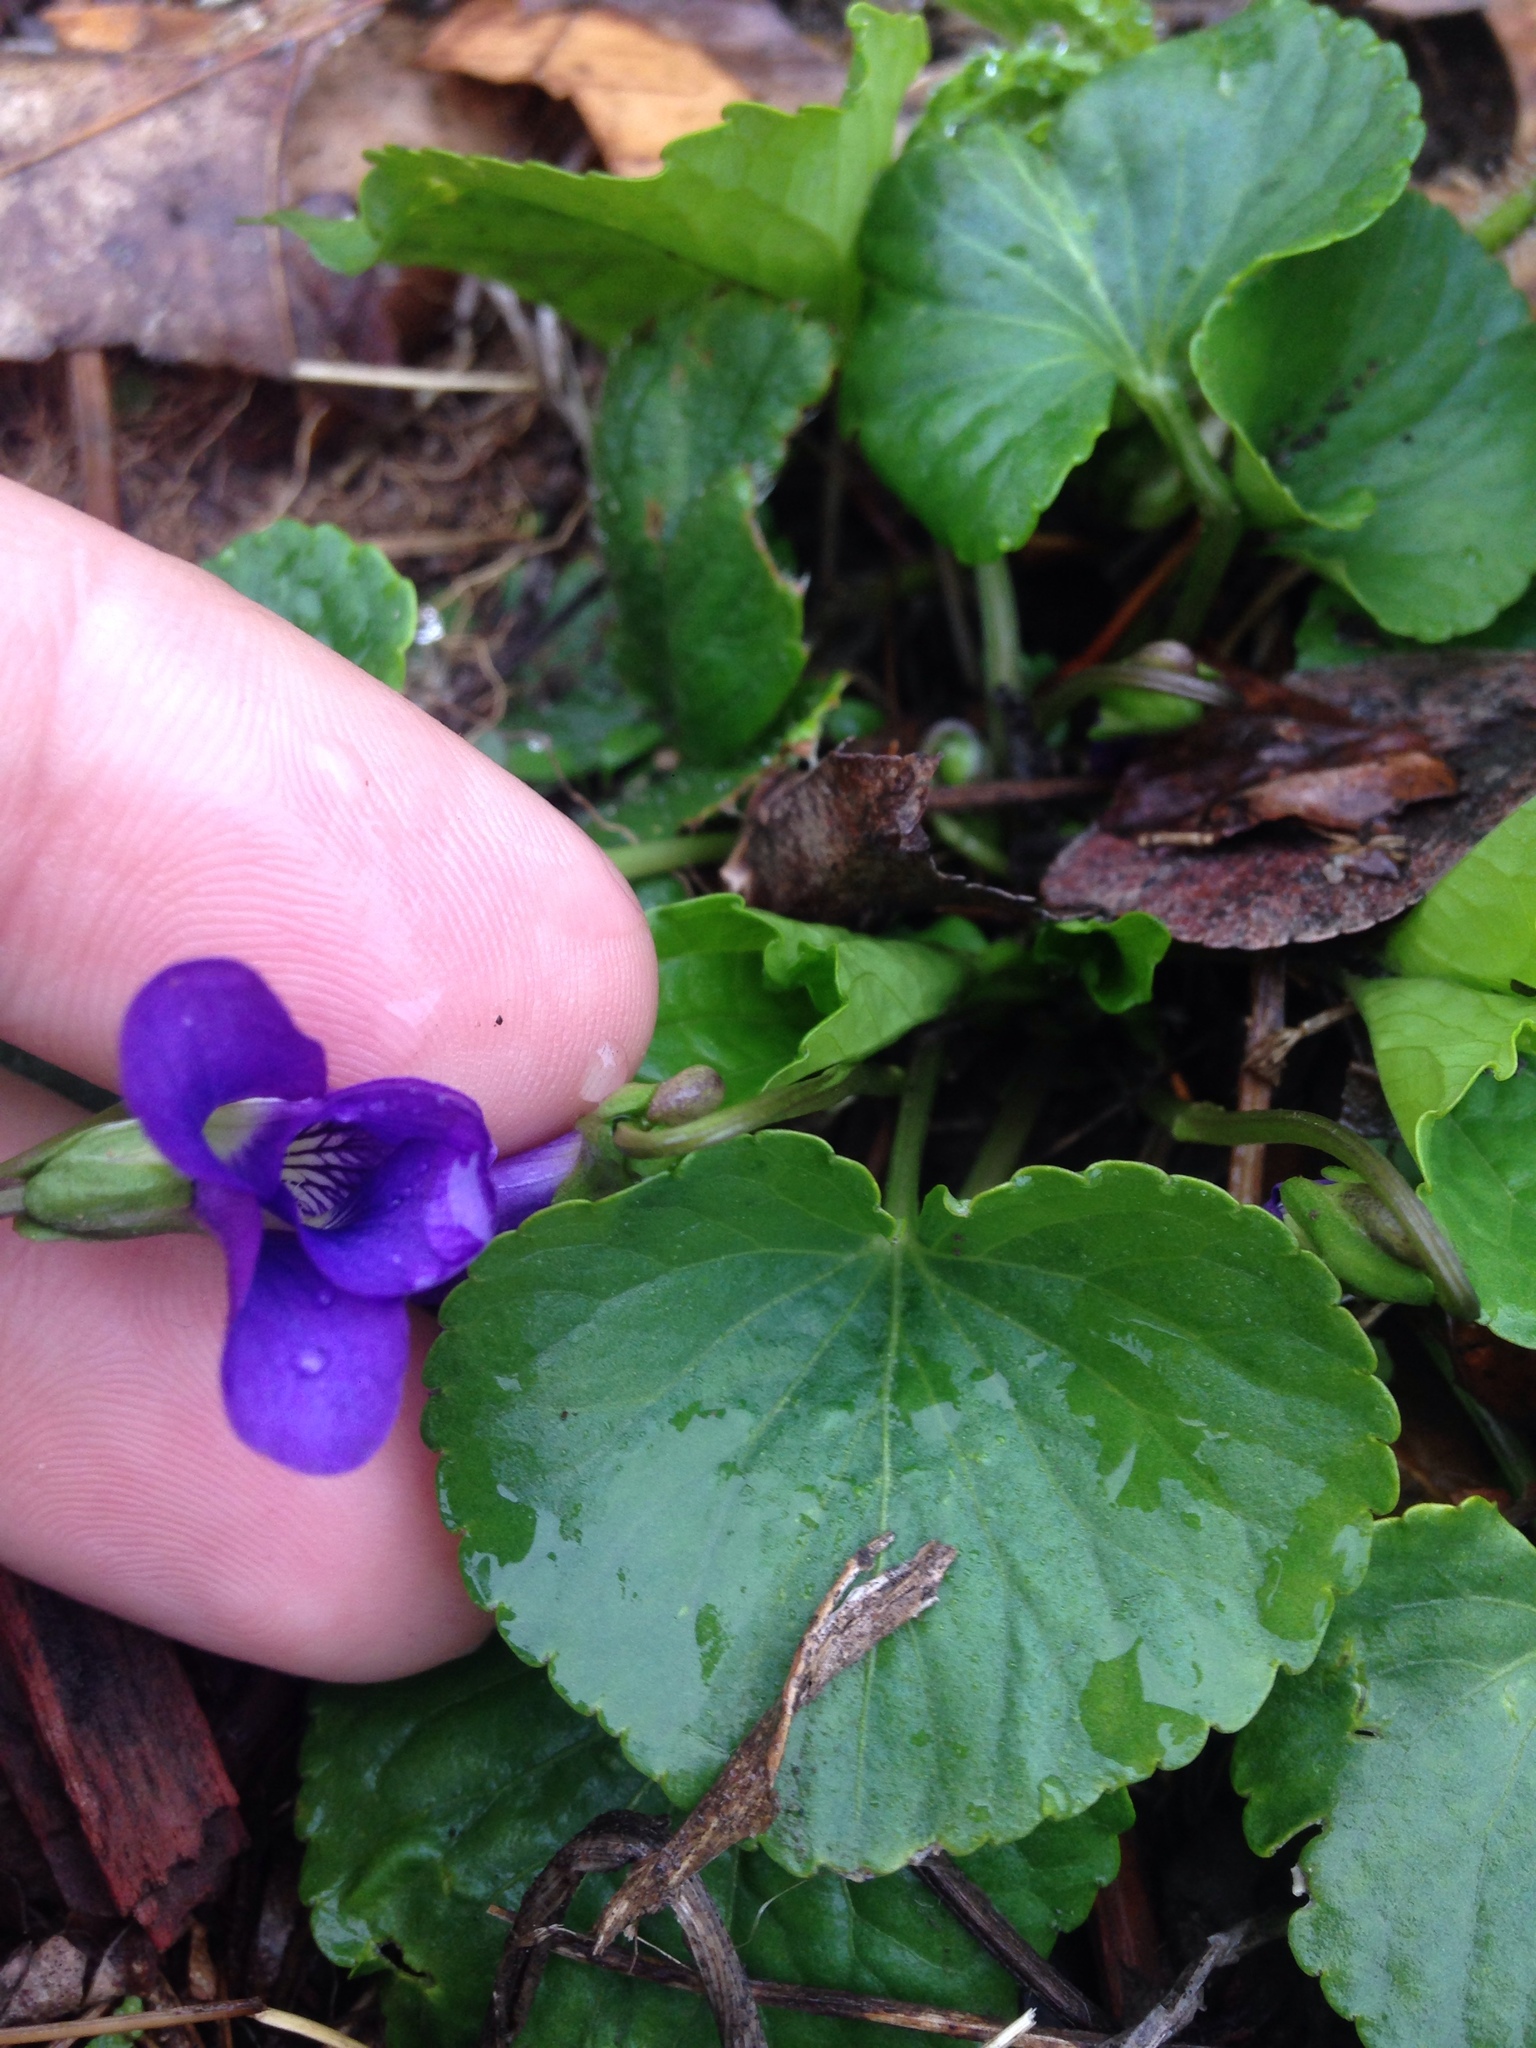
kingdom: Plantae
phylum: Tracheophyta
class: Magnoliopsida
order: Malpighiales
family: Violaceae
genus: Viola
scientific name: Viola sororia
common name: Dooryard violet
